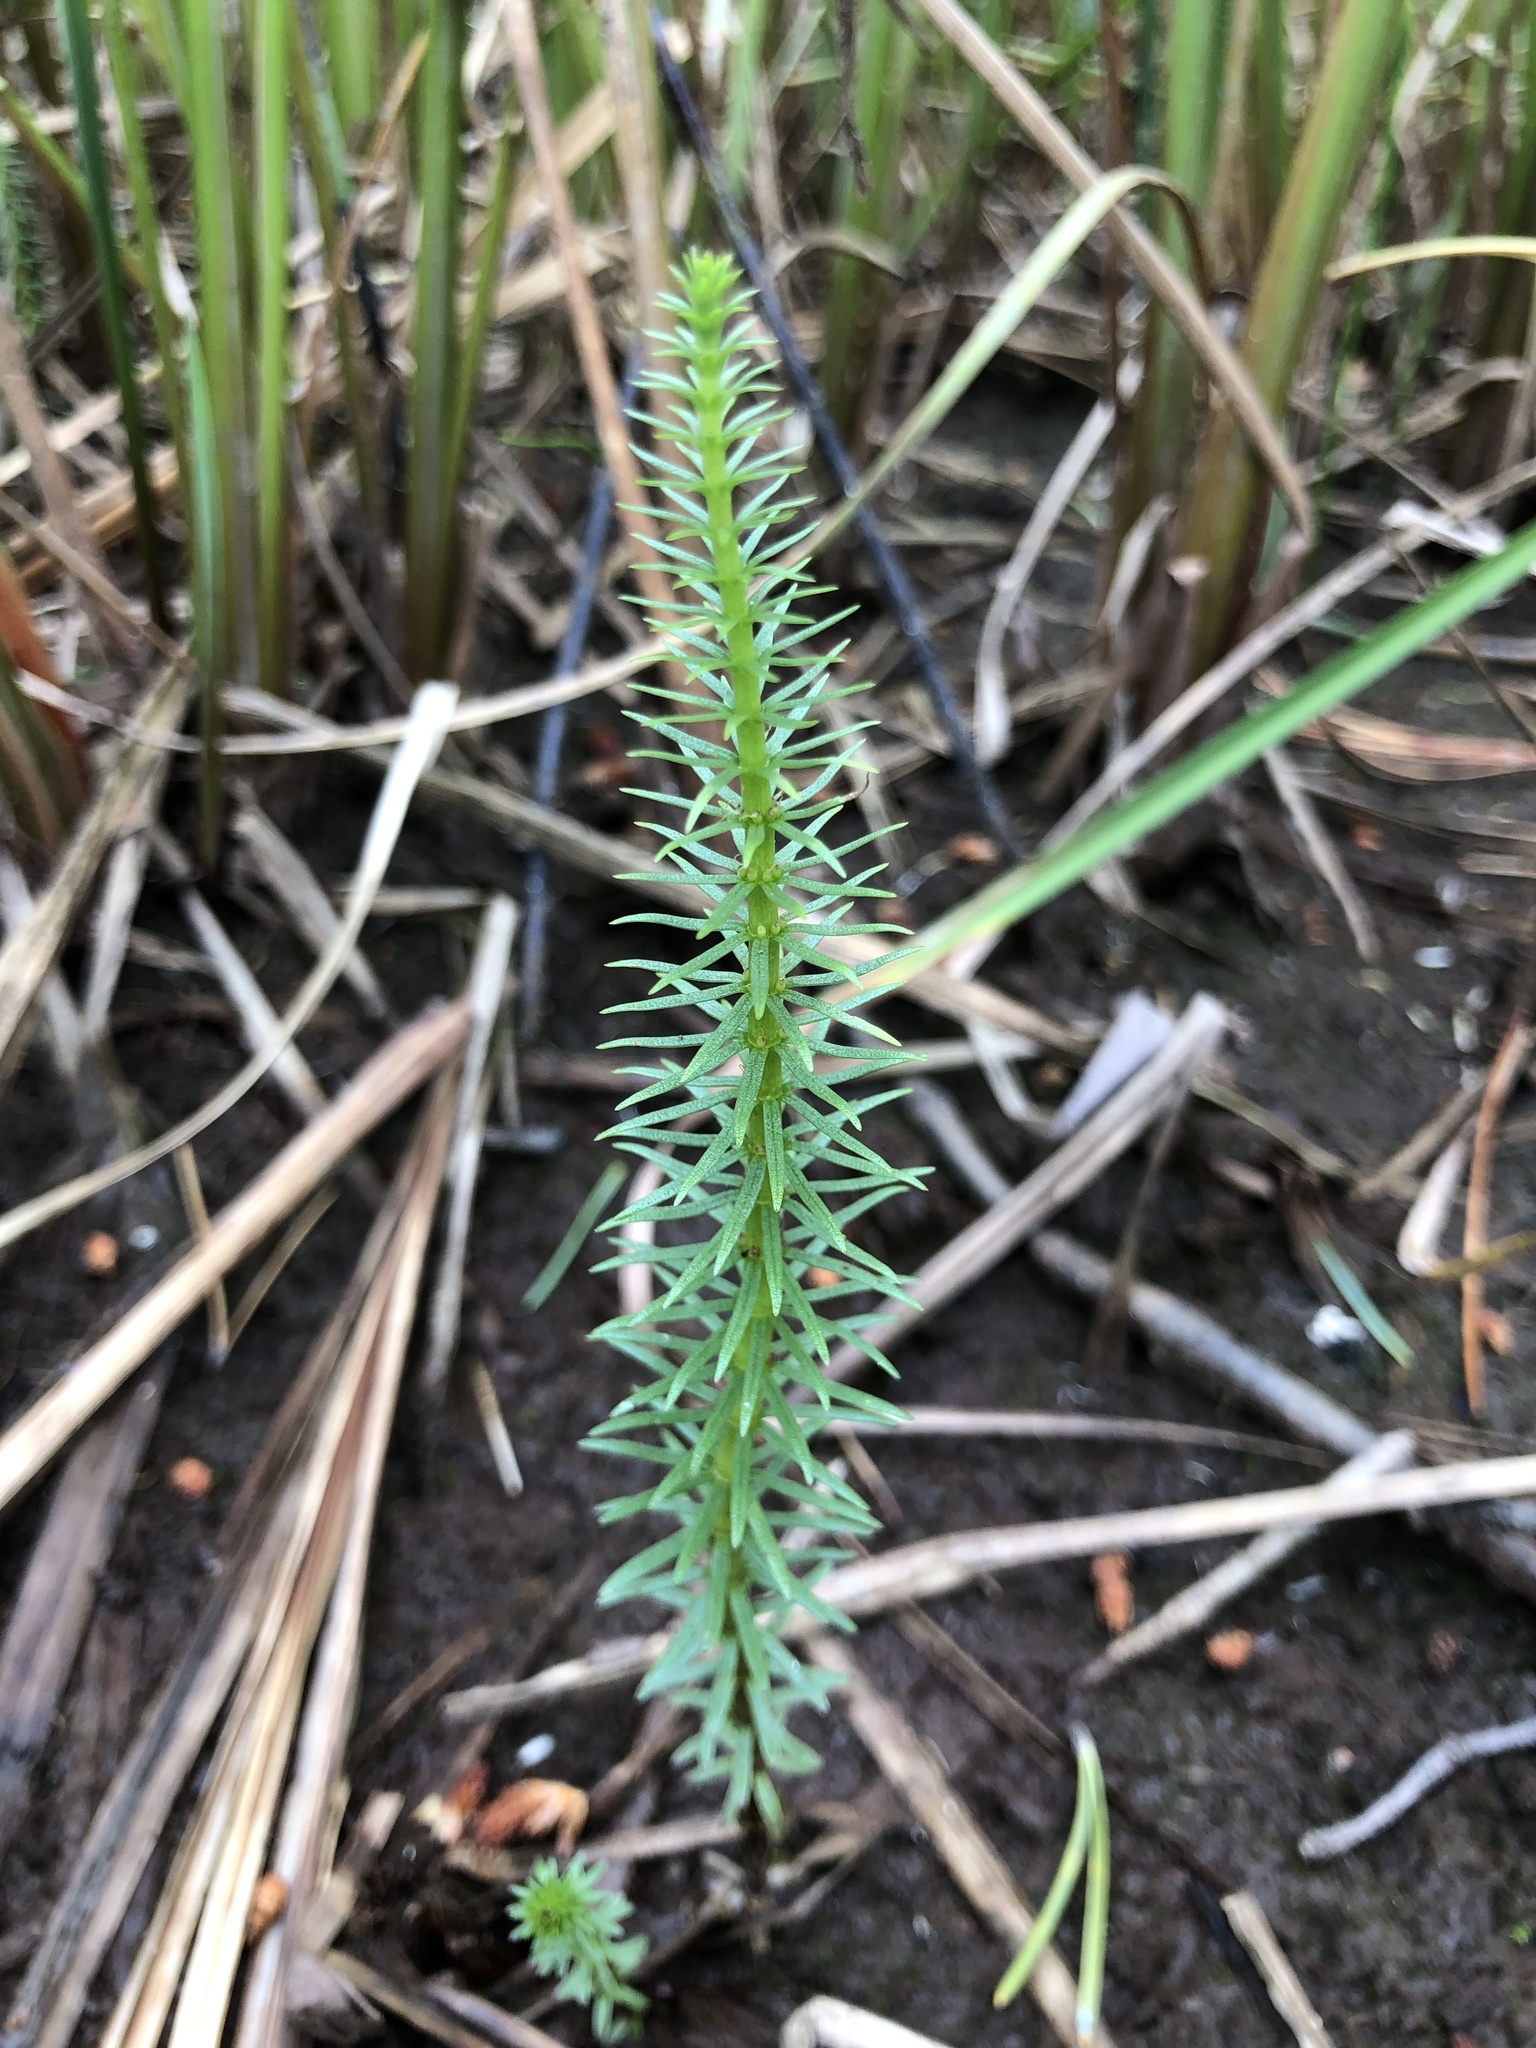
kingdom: Plantae
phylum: Tracheophyta
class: Magnoliopsida
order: Lamiales
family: Plantaginaceae
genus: Hippuris
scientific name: Hippuris vulgaris
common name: Mare's-tail
